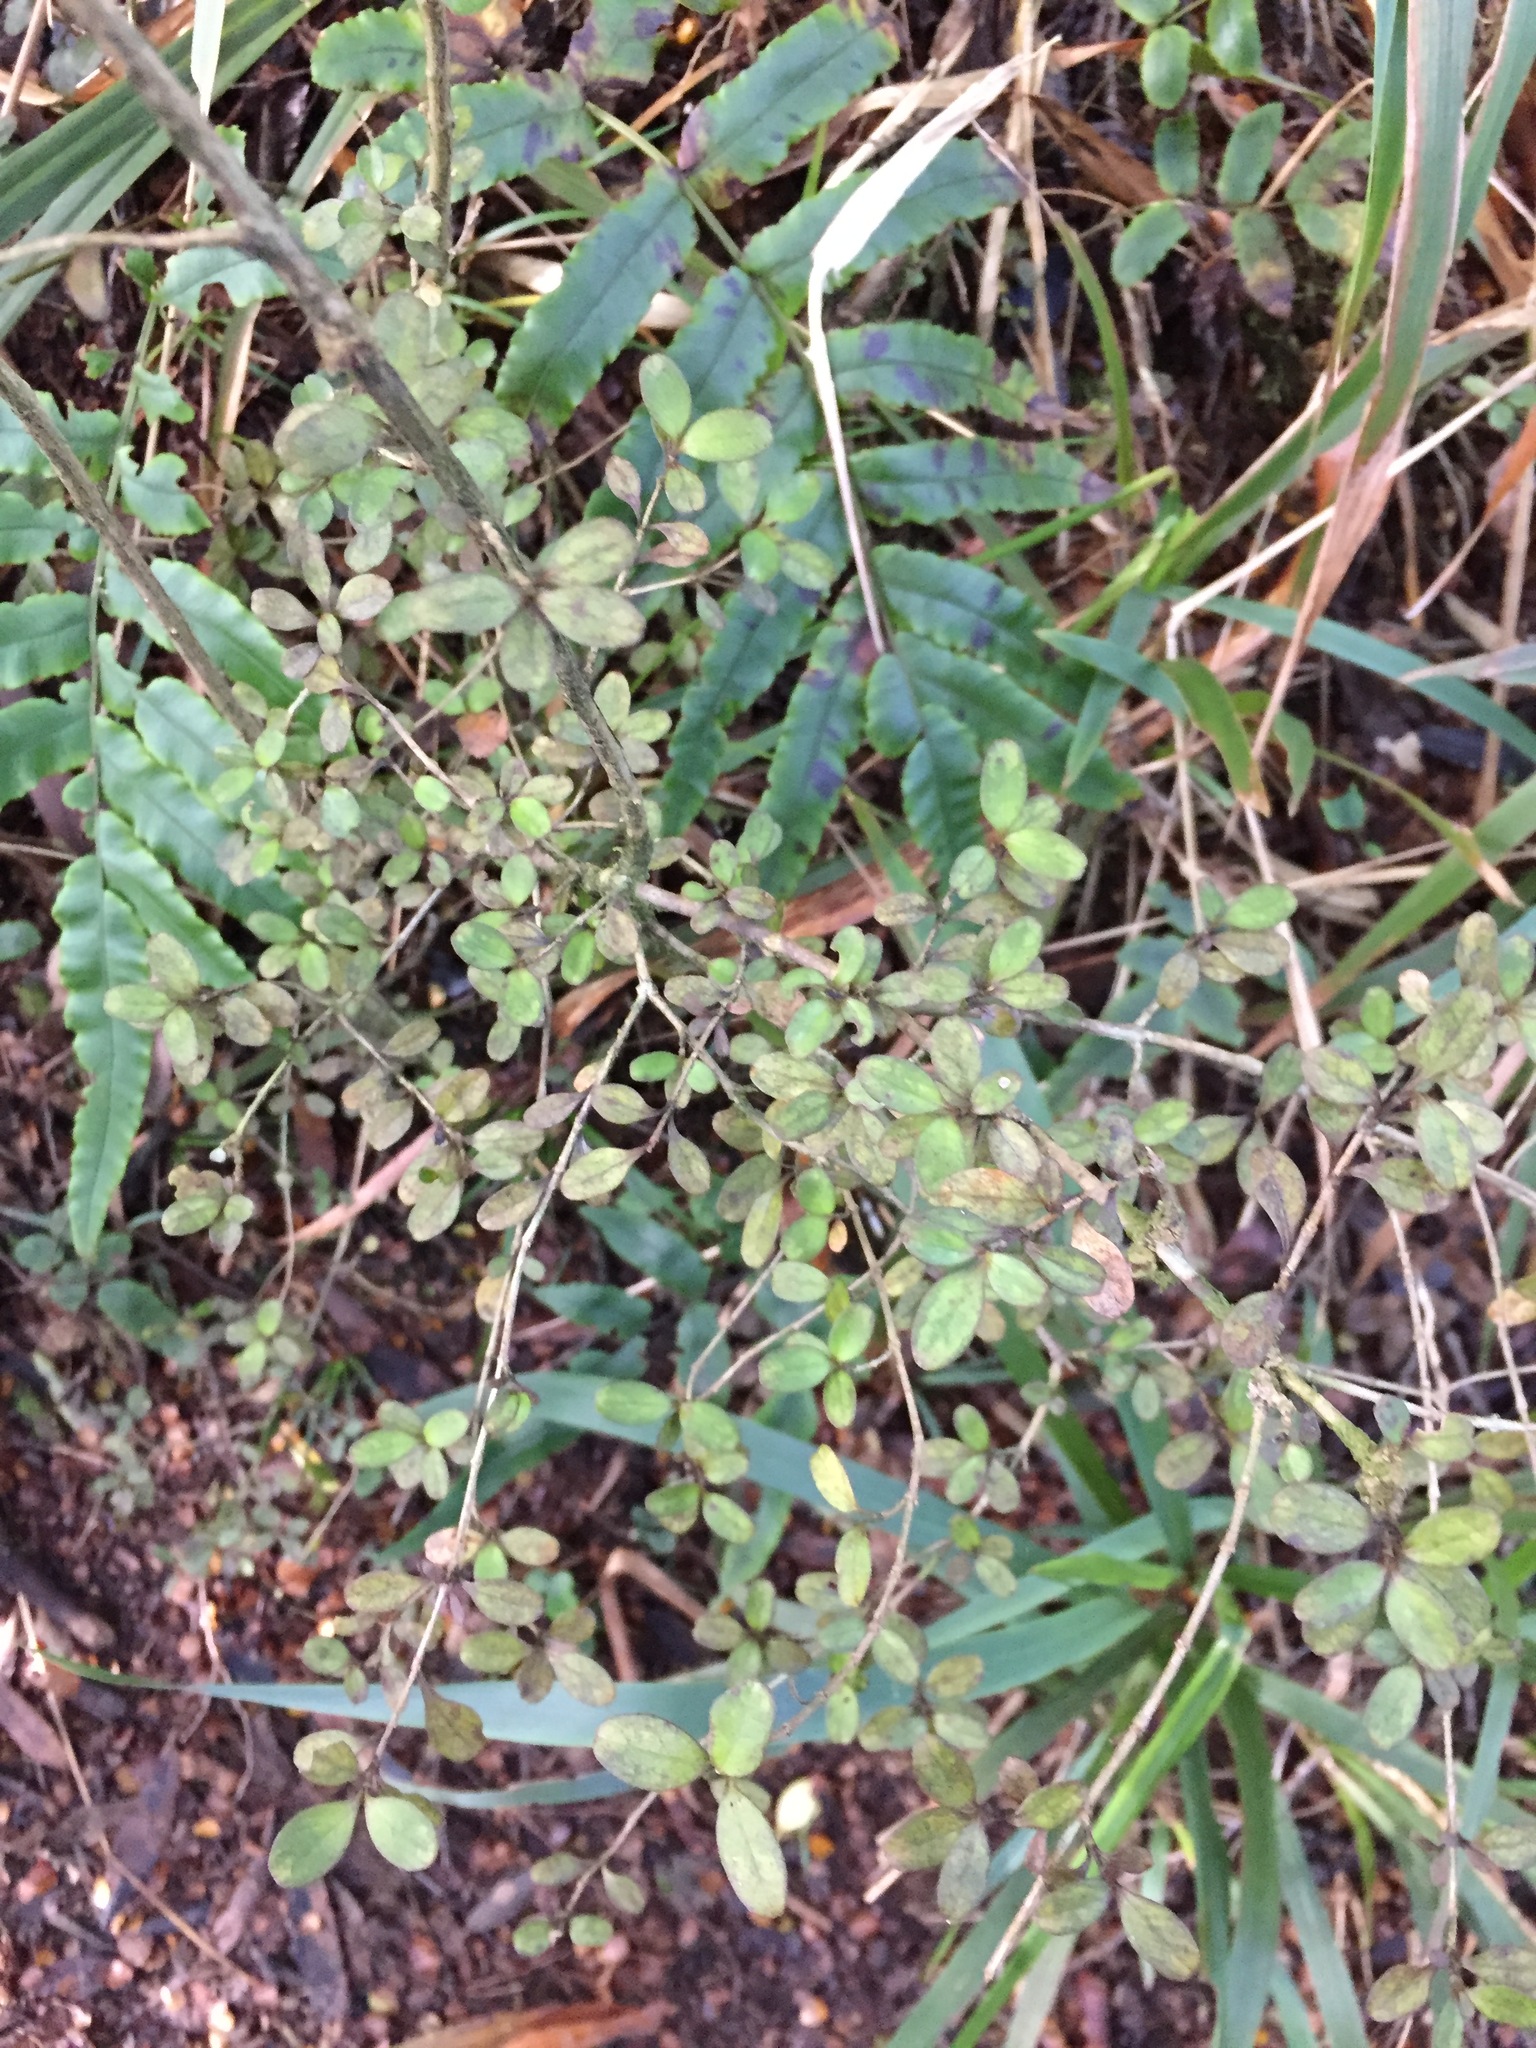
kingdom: Plantae
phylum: Tracheophyta
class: Magnoliopsida
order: Gentianales
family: Rubiaceae
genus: Coprosma
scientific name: Coprosma colensoi
